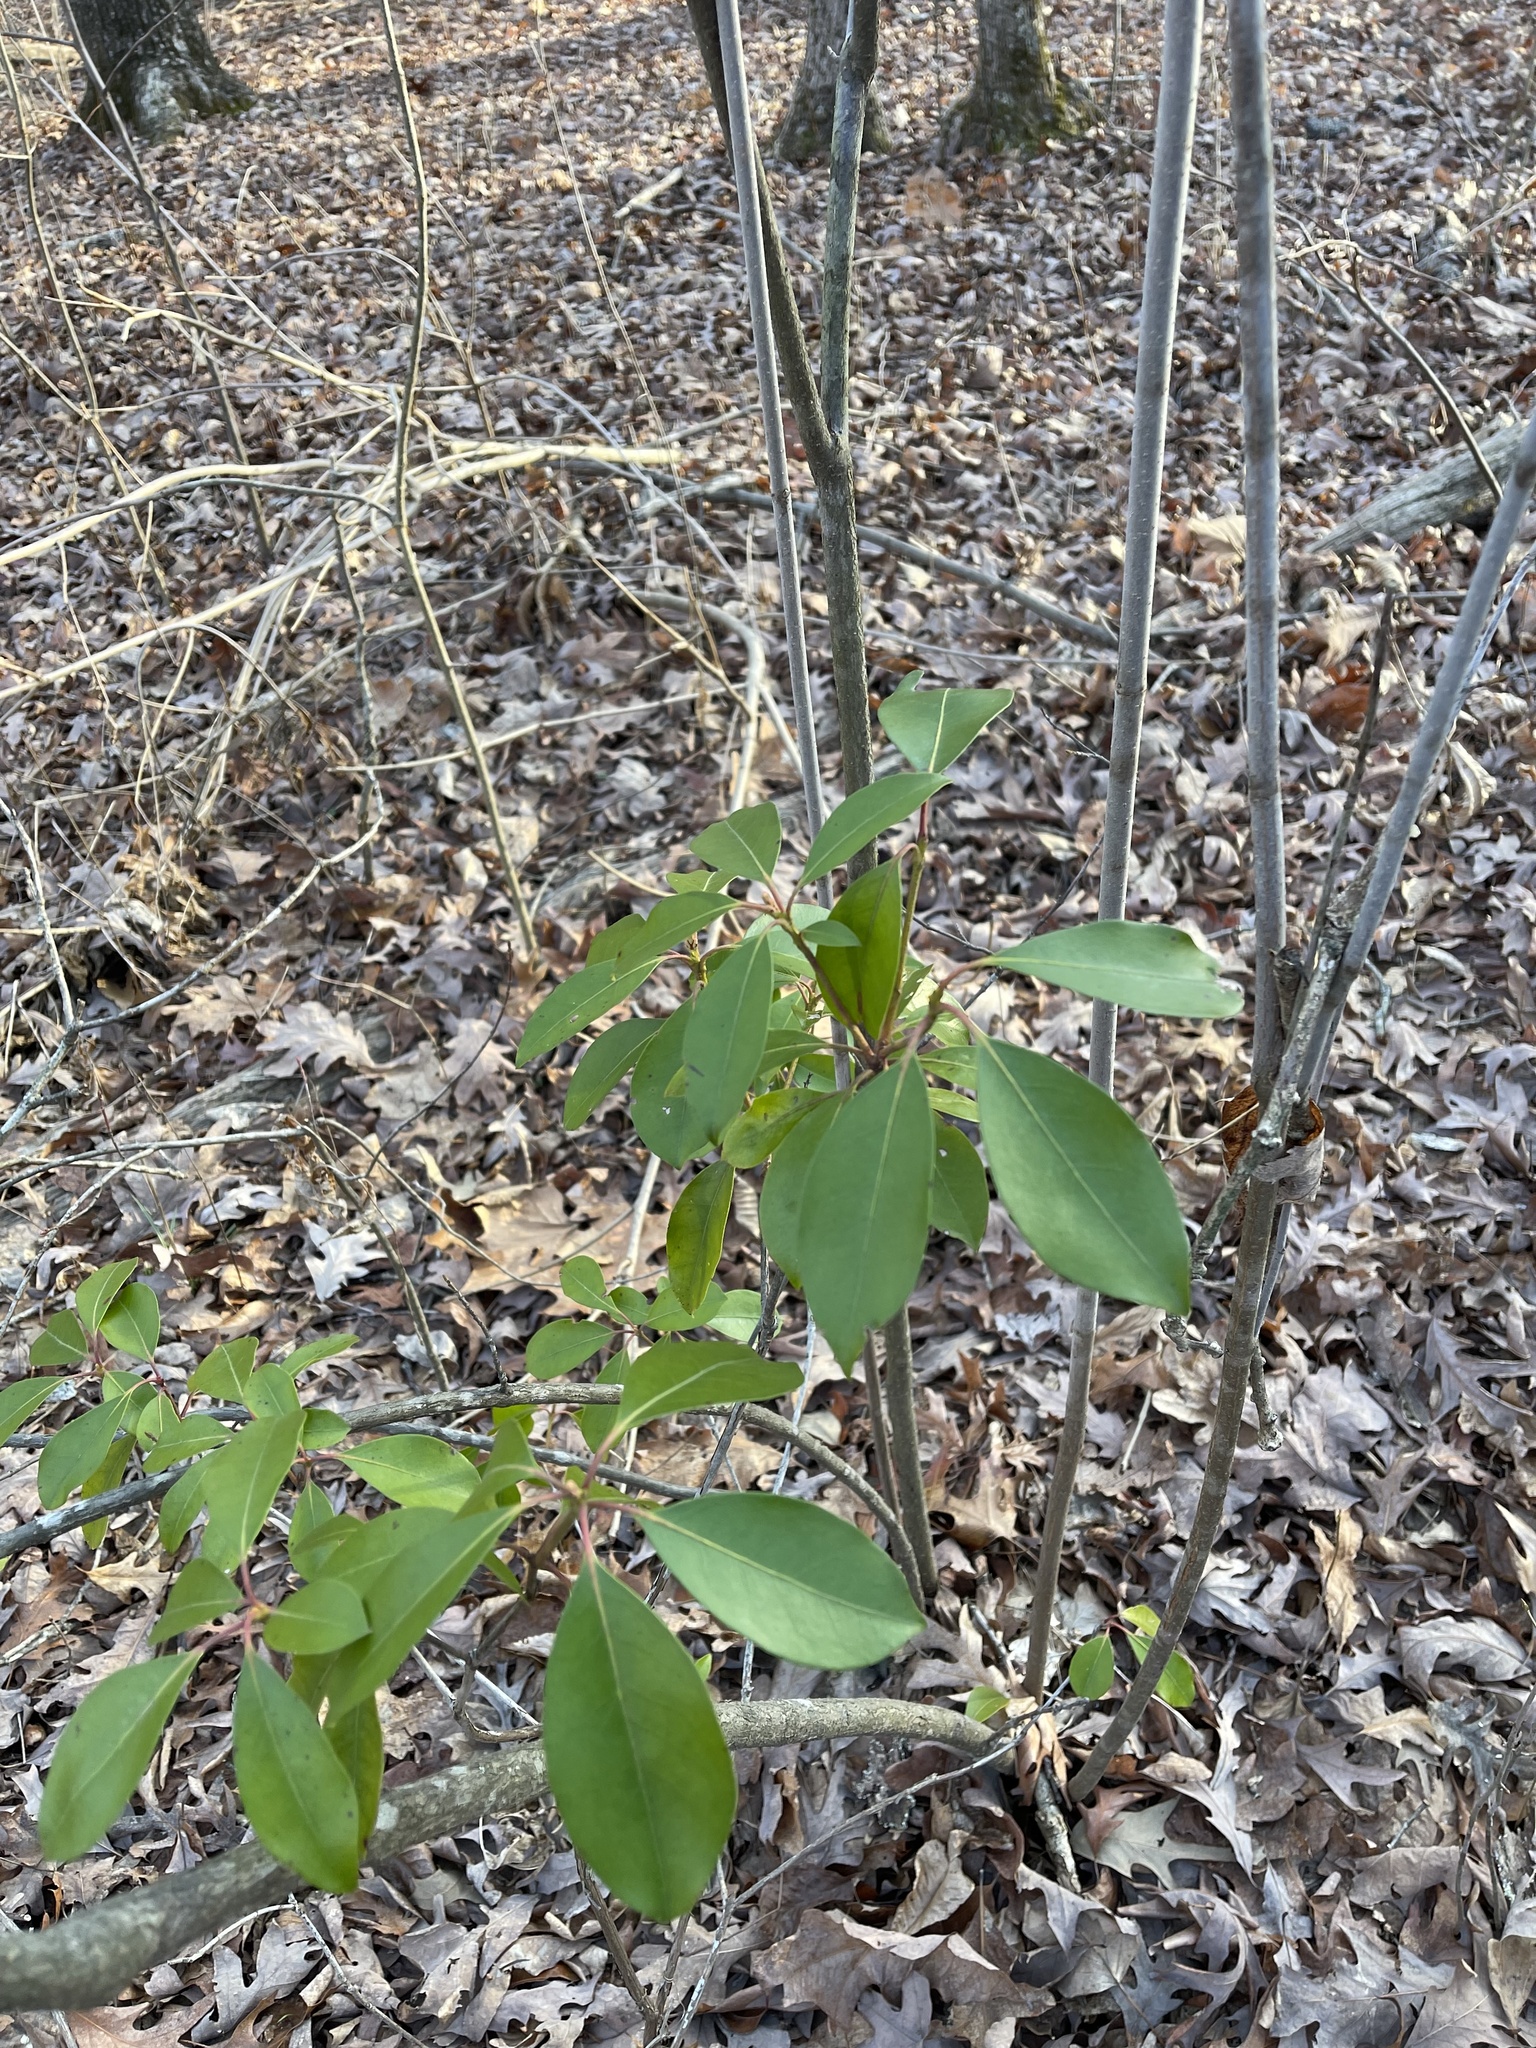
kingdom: Plantae
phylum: Tracheophyta
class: Magnoliopsida
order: Ericales
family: Ericaceae
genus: Kalmia
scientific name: Kalmia latifolia
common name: Mountain-laurel
